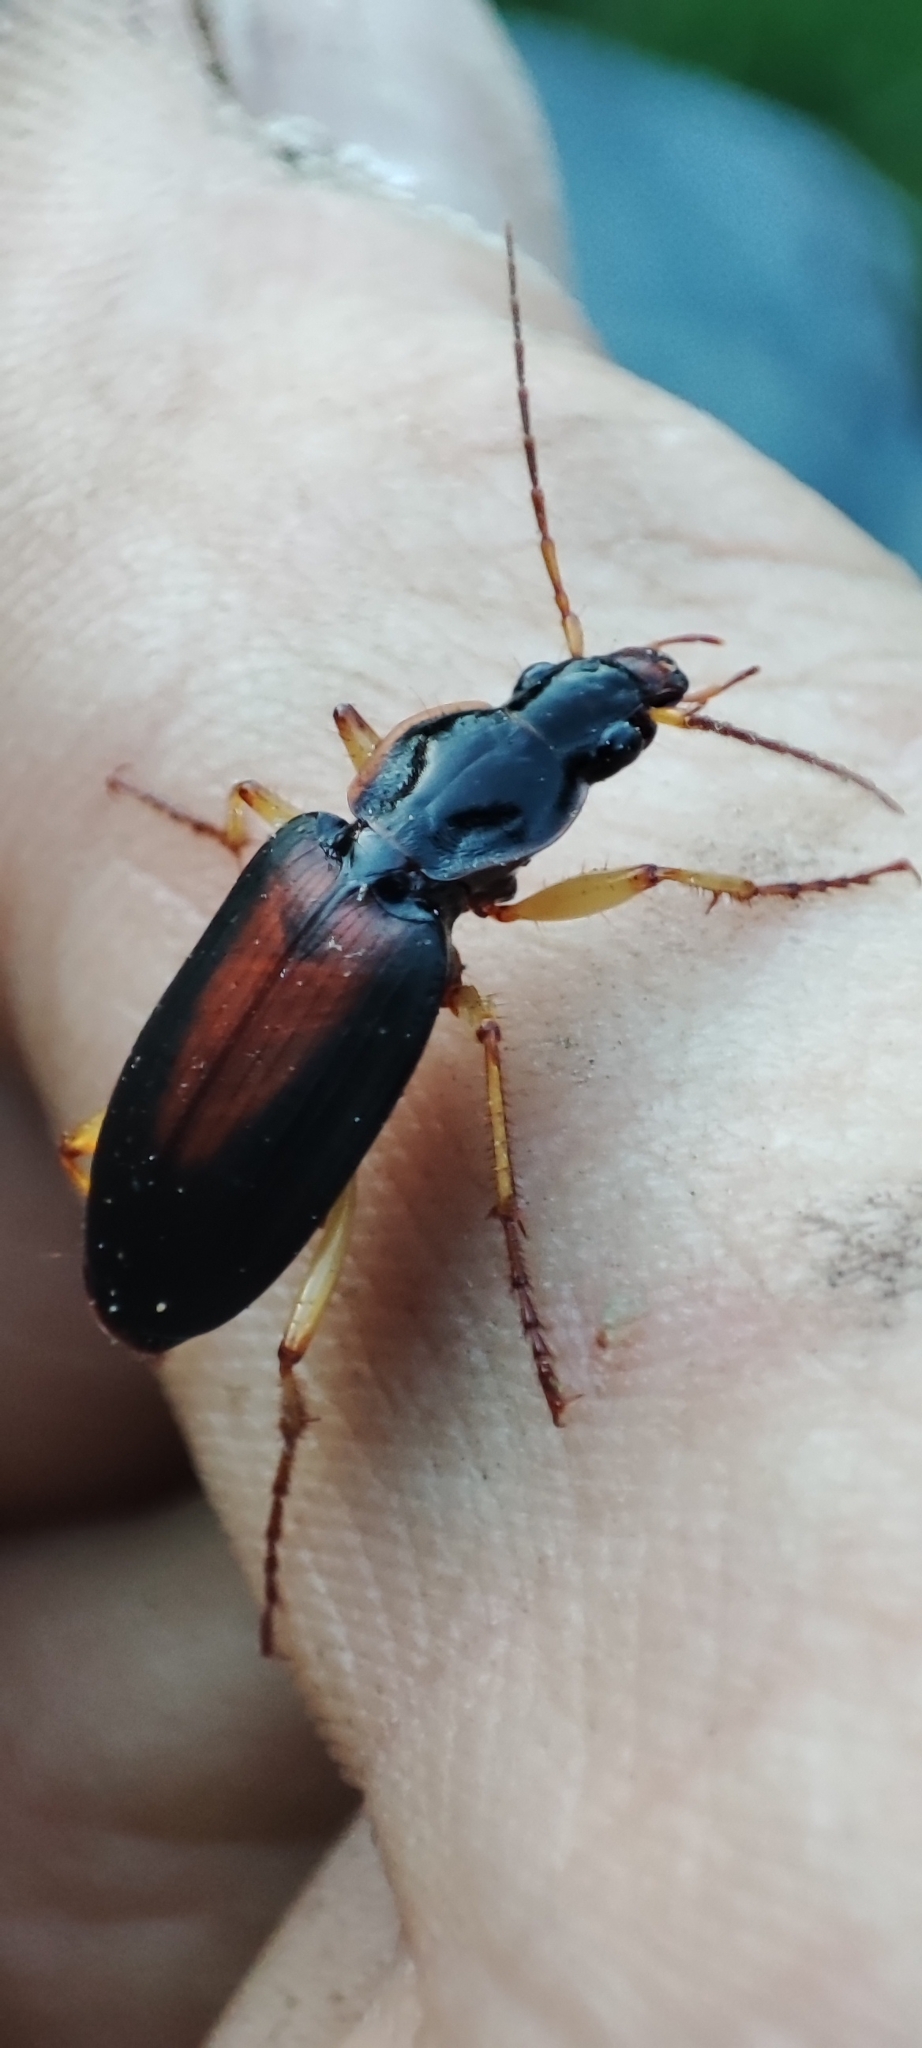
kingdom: Animalia
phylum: Arthropoda
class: Insecta
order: Coleoptera
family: Carabidae
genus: Dolichus
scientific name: Dolichus halensis
